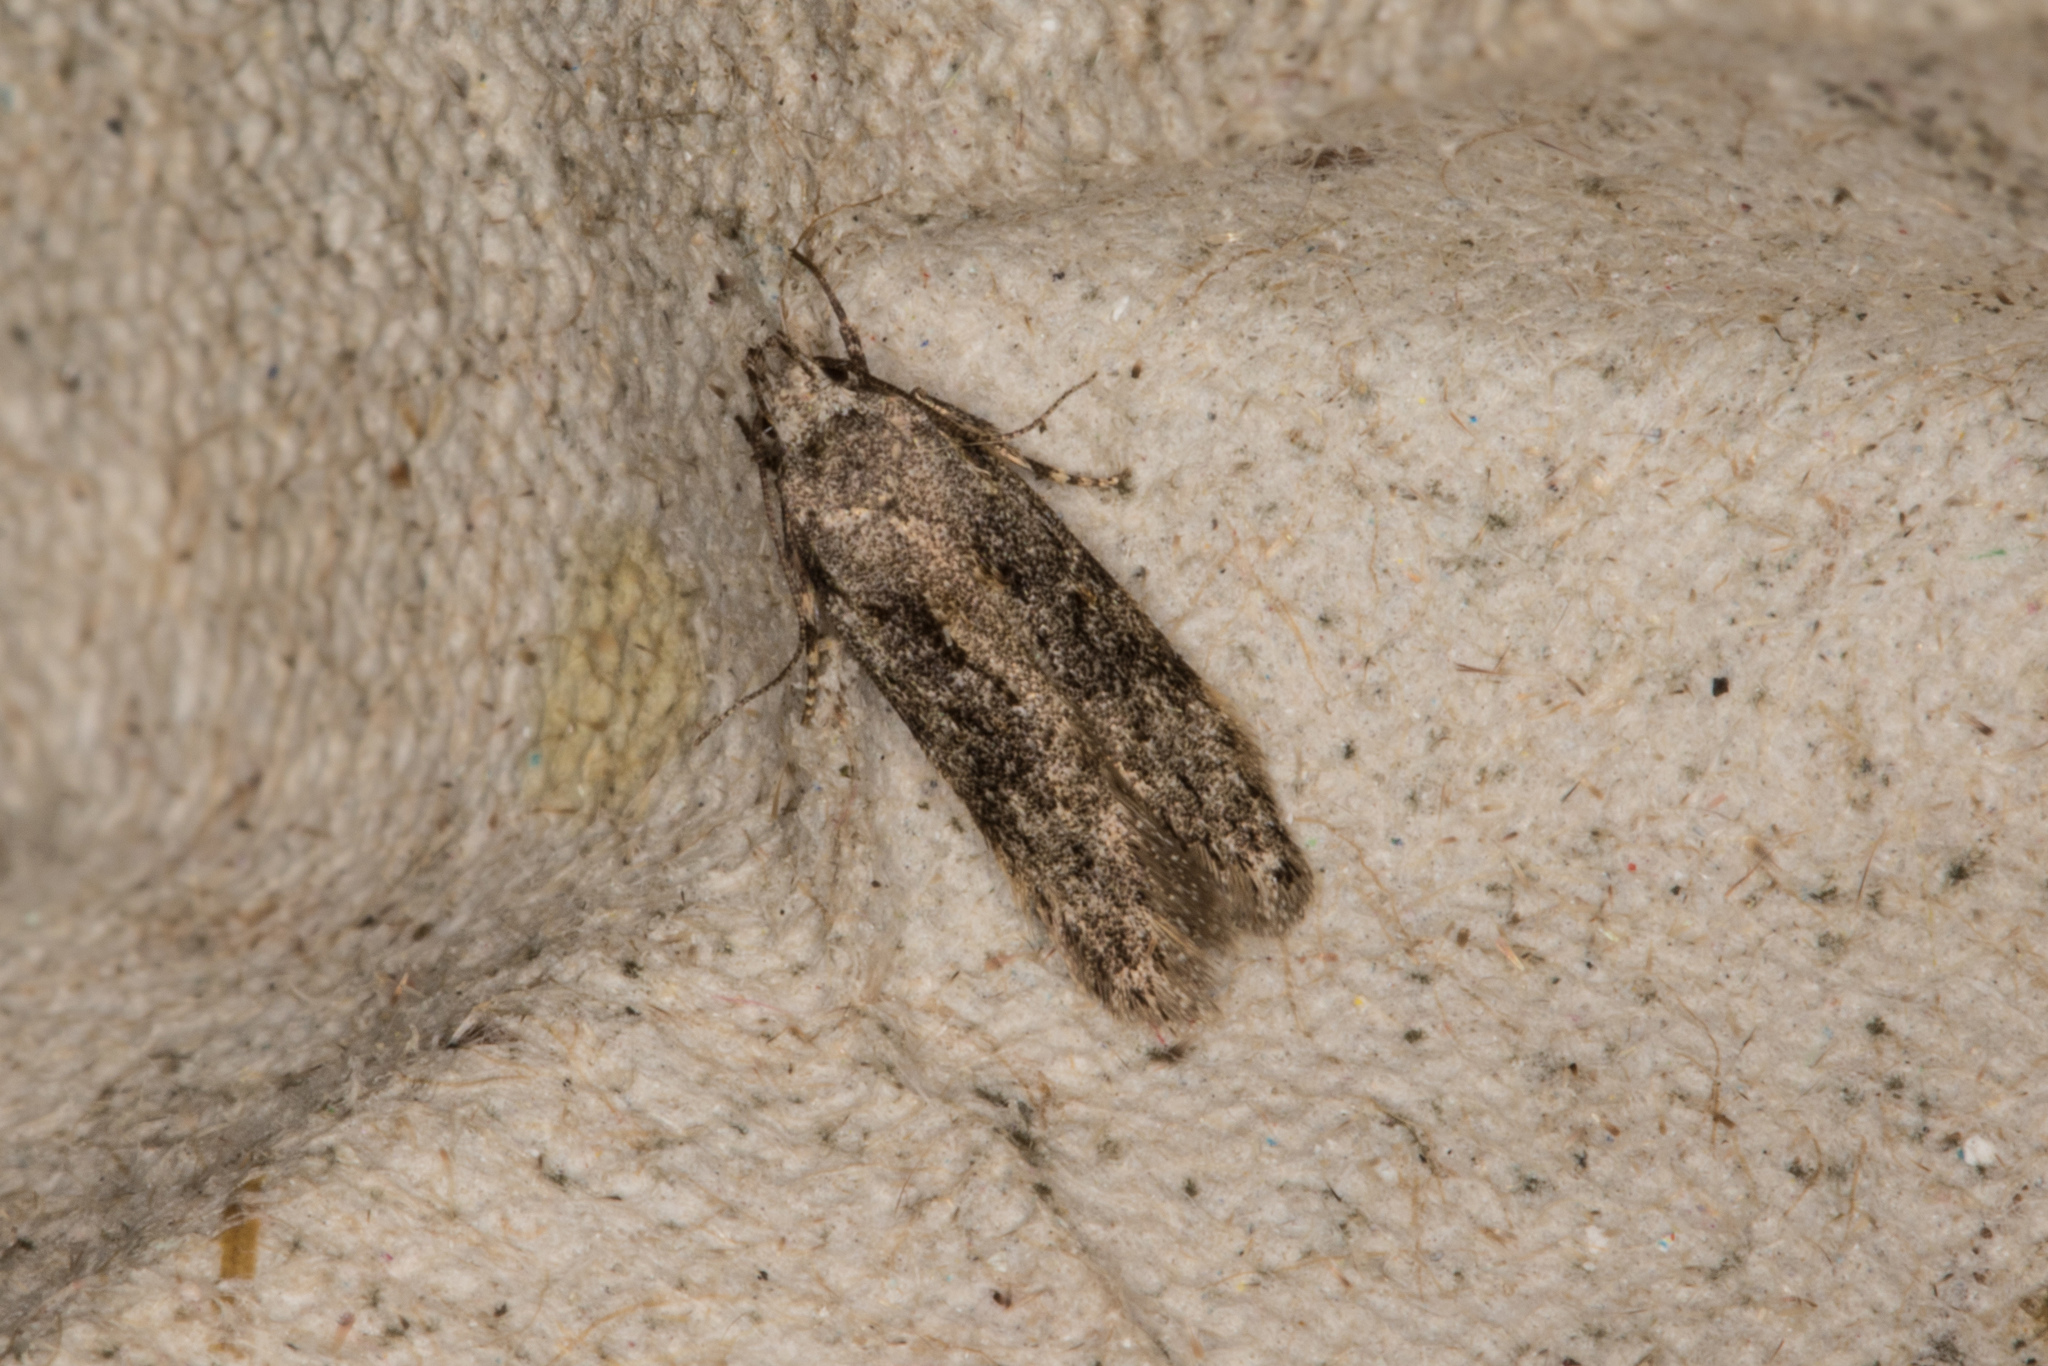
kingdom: Animalia
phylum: Arthropoda
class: Insecta
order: Lepidoptera
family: Gelechiidae
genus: Carpatolechia
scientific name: Carpatolechia fugitivella
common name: Elm groundling
